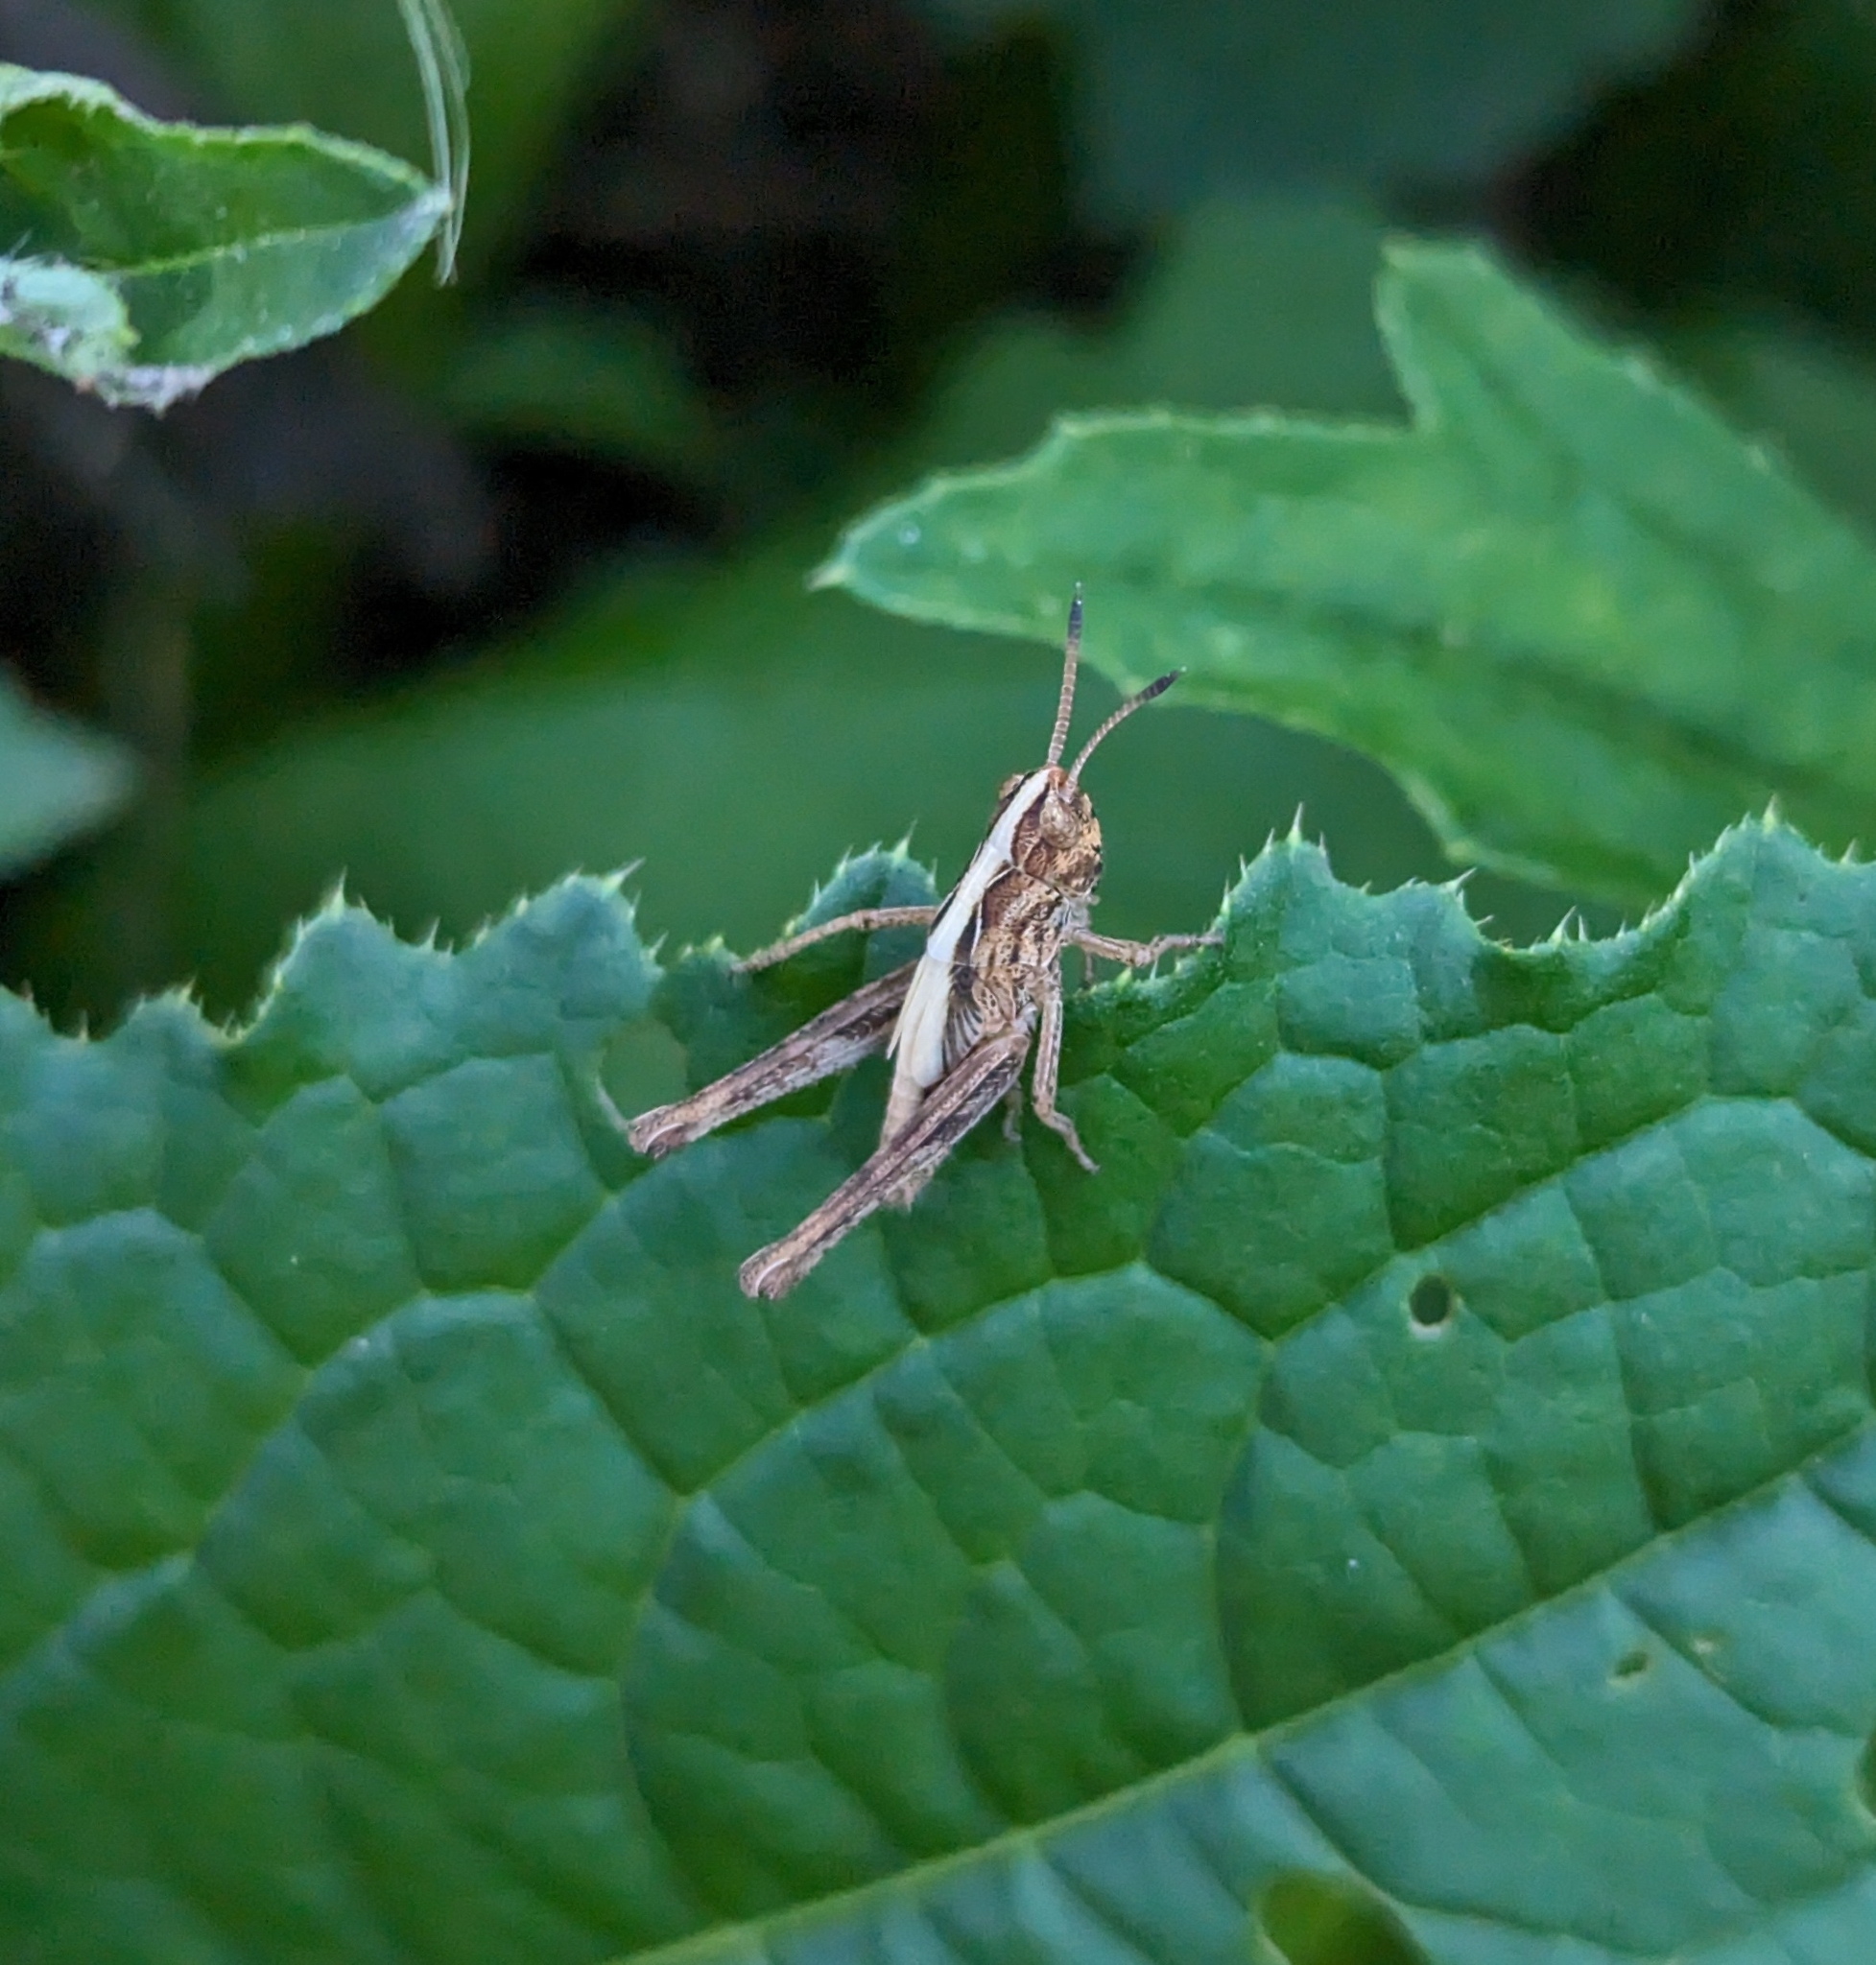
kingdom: Animalia
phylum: Arthropoda
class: Insecta
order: Orthoptera
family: Acrididae
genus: Gomphocerippus
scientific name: Gomphocerippus rufus
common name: Rufous grasshopper
